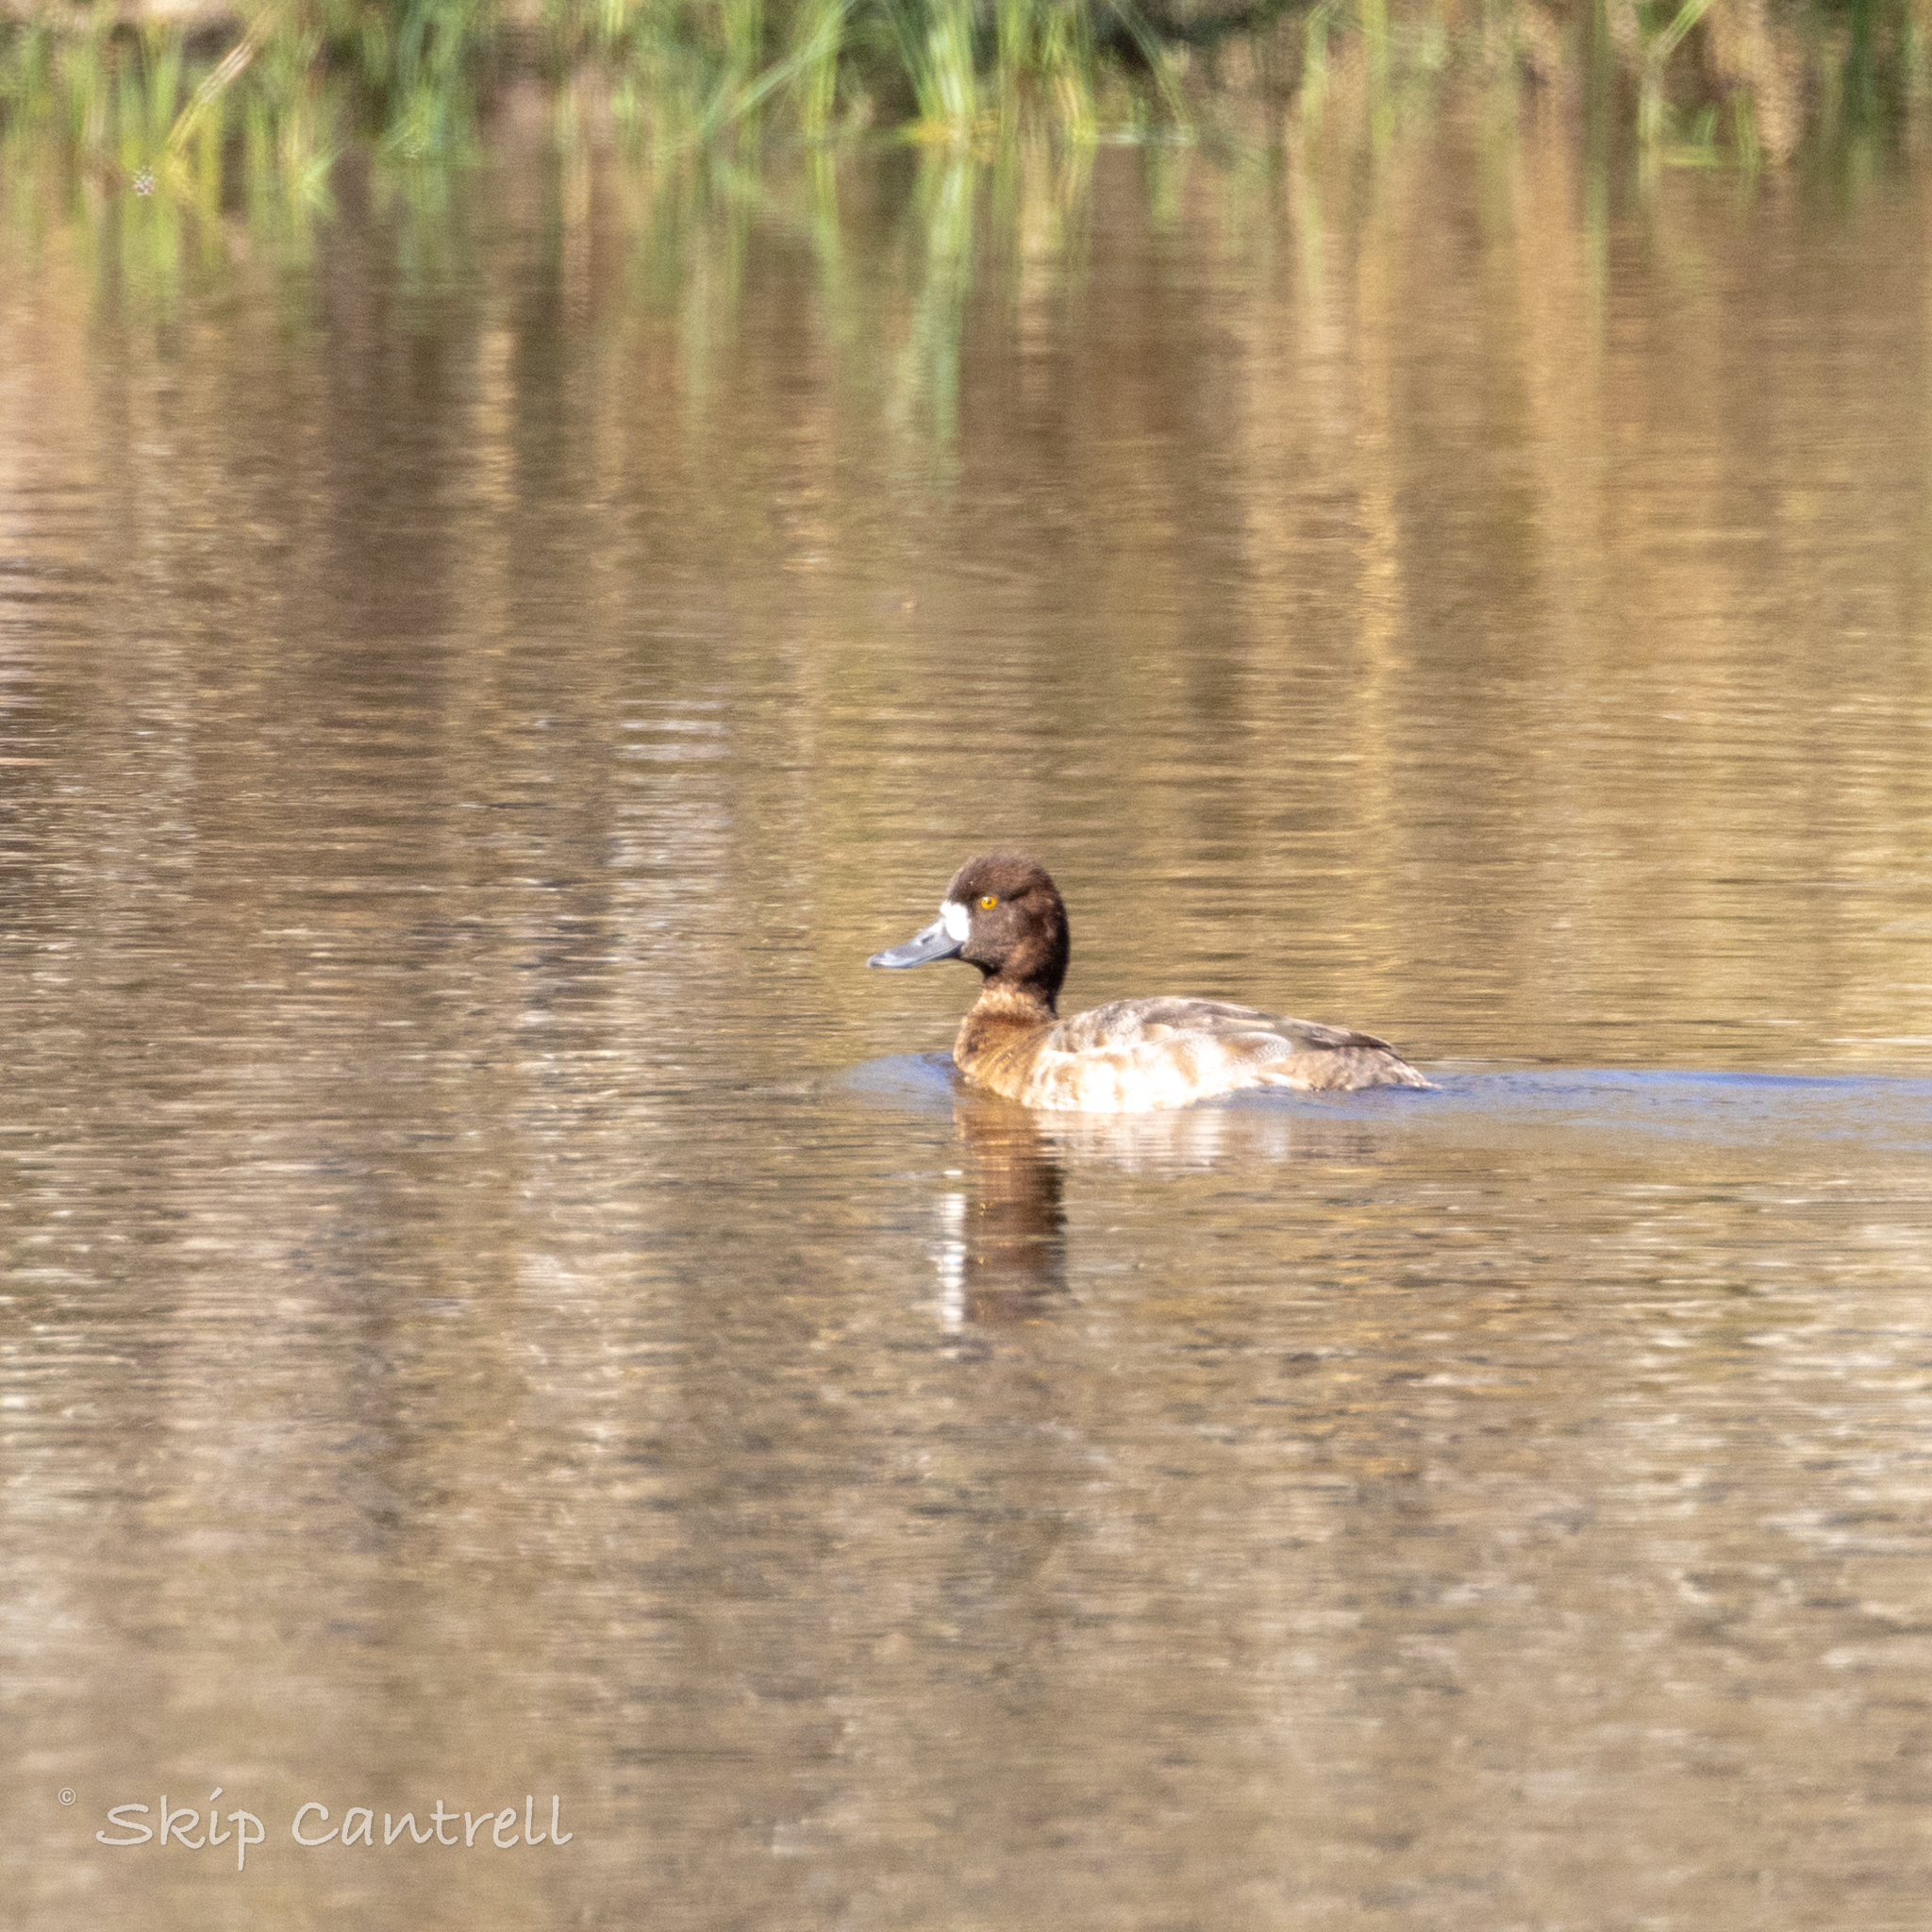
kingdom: Animalia
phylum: Chordata
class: Aves
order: Anseriformes
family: Anatidae
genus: Aythya
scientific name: Aythya affinis
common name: Lesser scaup
